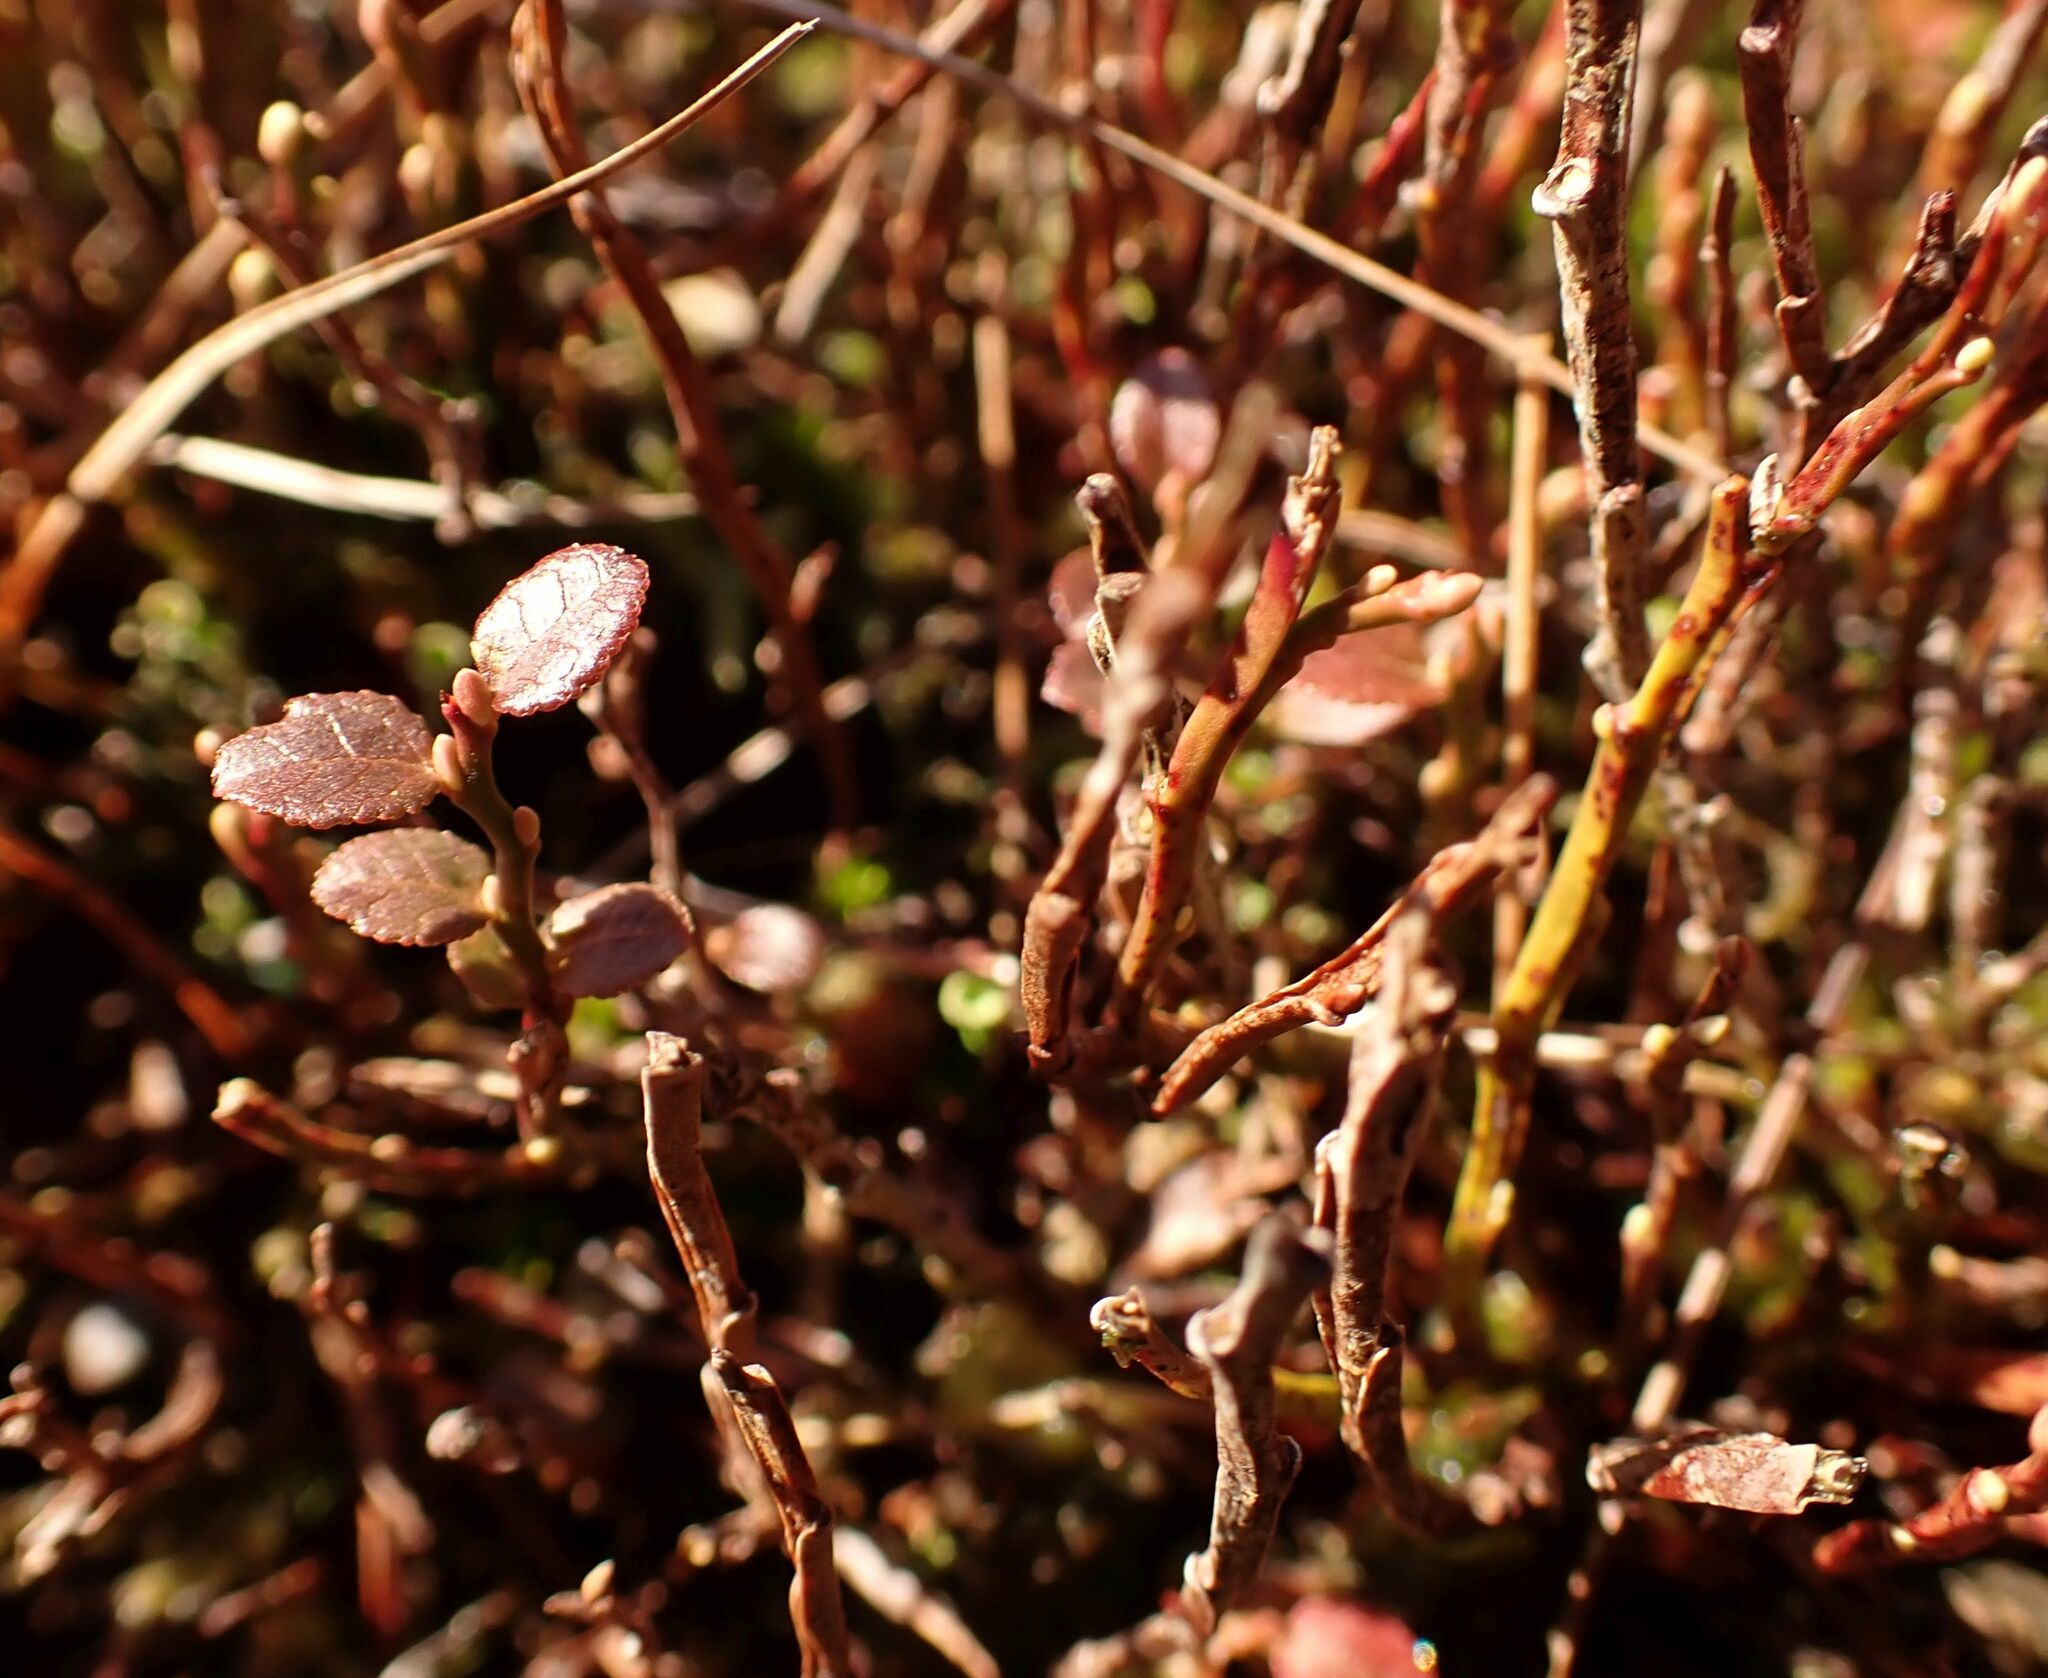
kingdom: Plantae
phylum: Tracheophyta
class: Magnoliopsida
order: Ericales
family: Ericaceae
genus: Vaccinium
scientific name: Vaccinium myrtillus
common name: Bilberry
